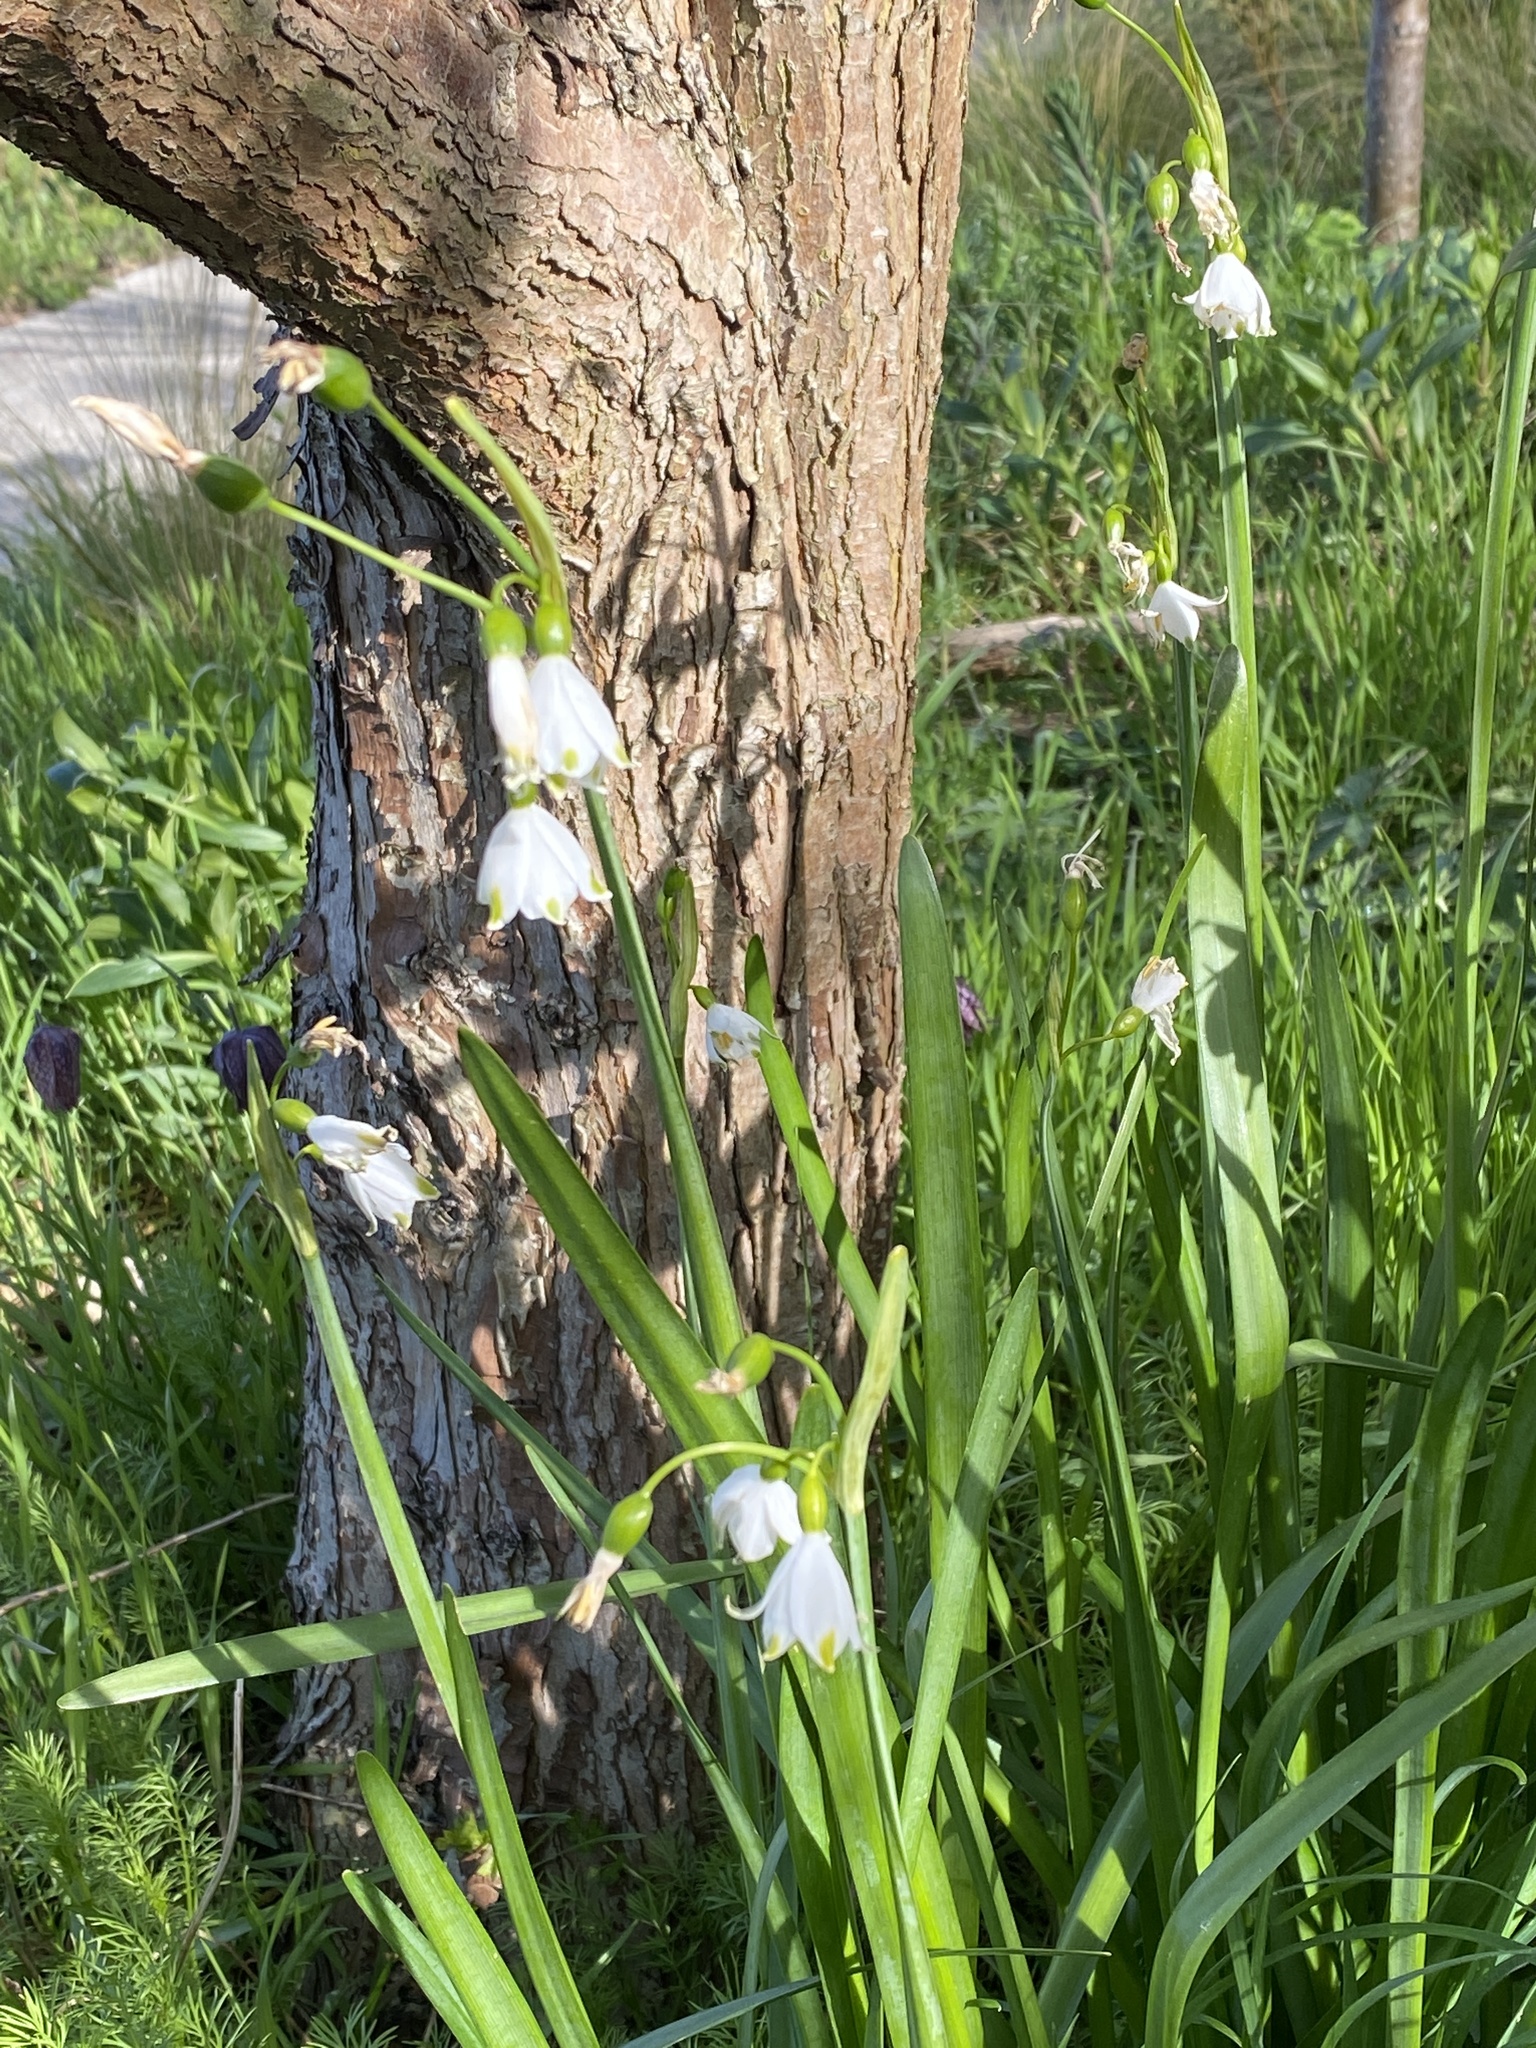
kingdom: Plantae
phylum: Tracheophyta
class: Liliopsida
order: Asparagales
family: Amaryllidaceae
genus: Leucojum
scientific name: Leucojum aestivum
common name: Summer snowflake
